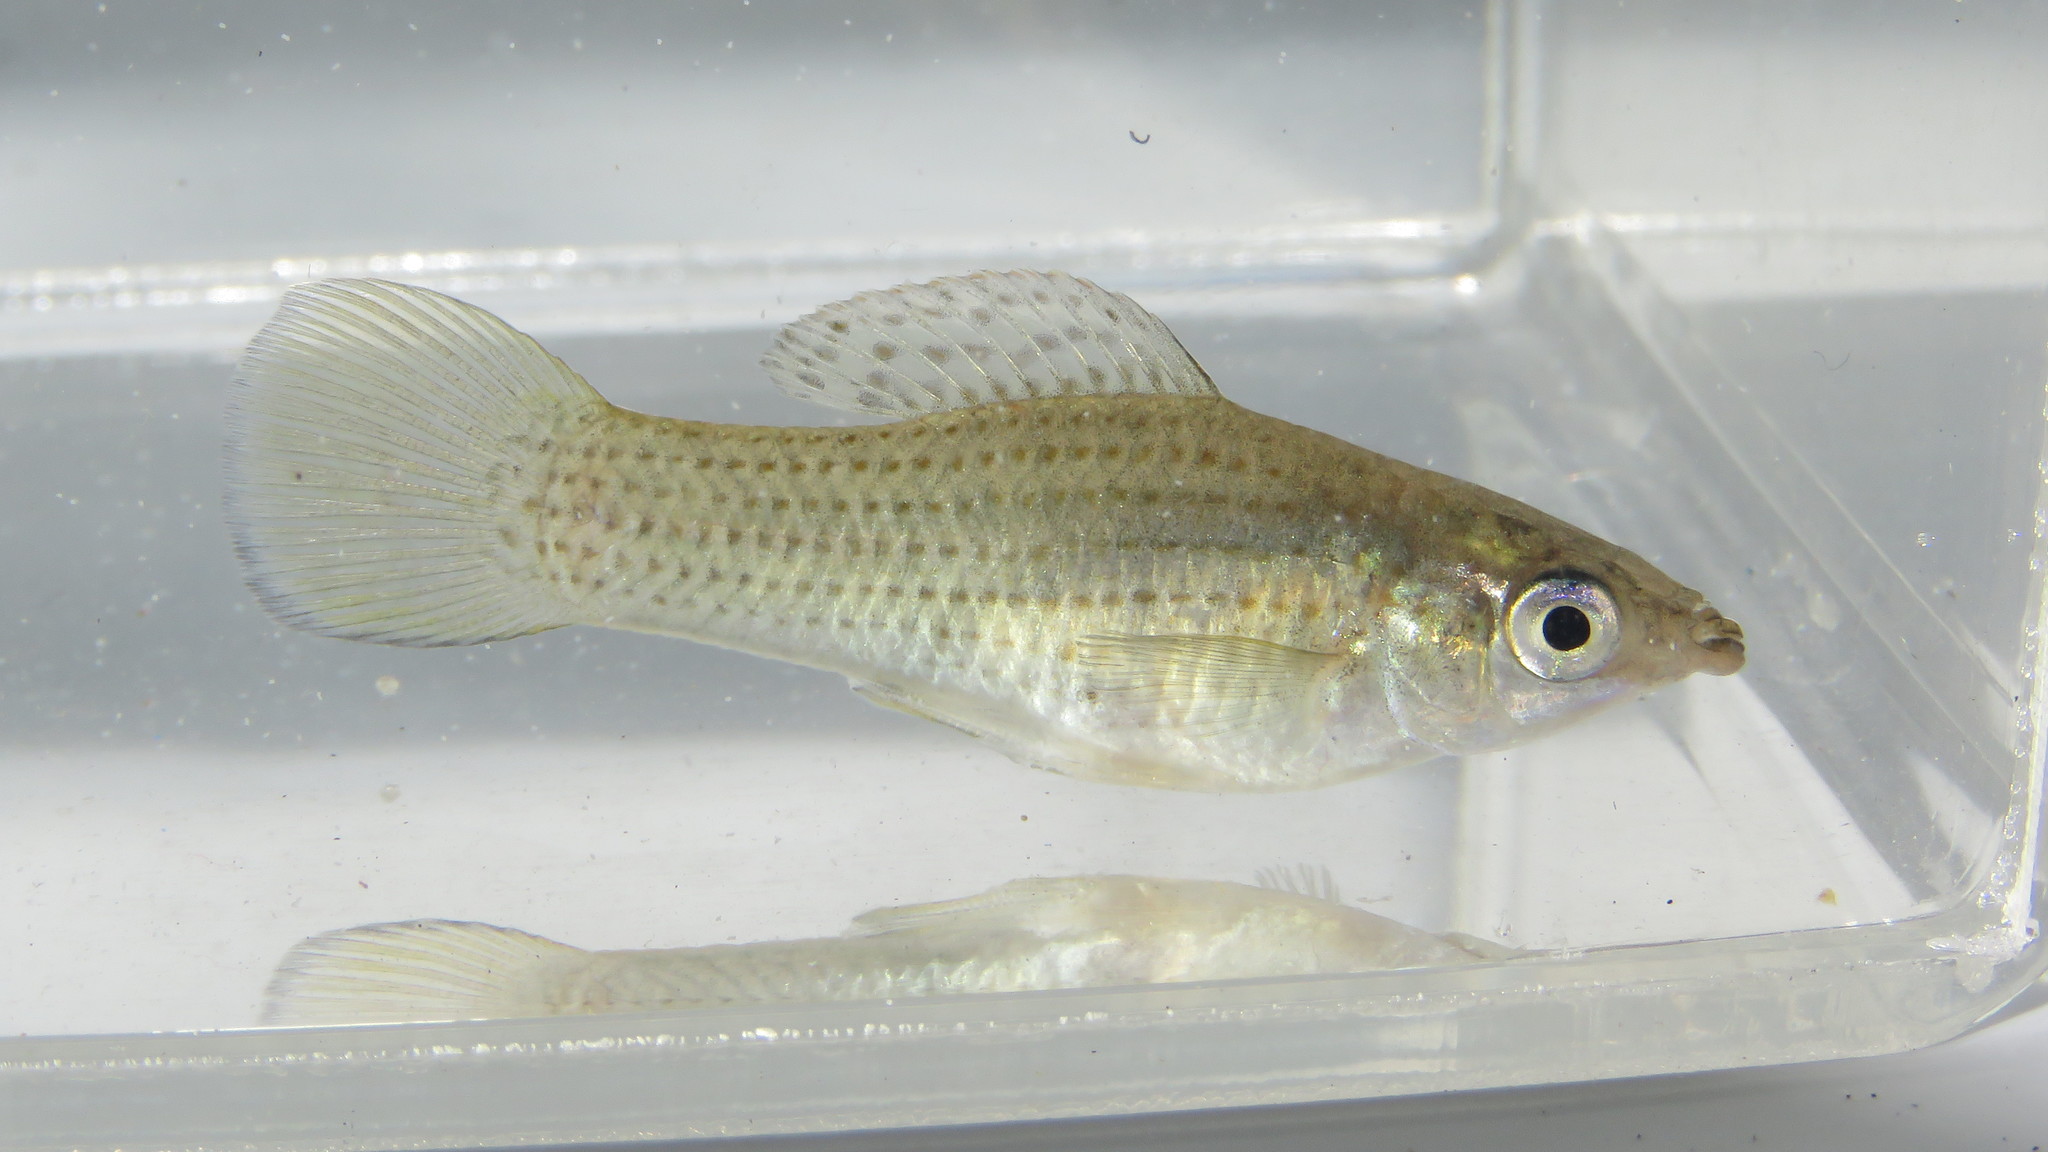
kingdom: Animalia
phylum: Chordata
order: Cyprinodontiformes
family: Poeciliidae
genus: Poecilia
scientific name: Poecilia latipinna
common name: Sailfin molly
